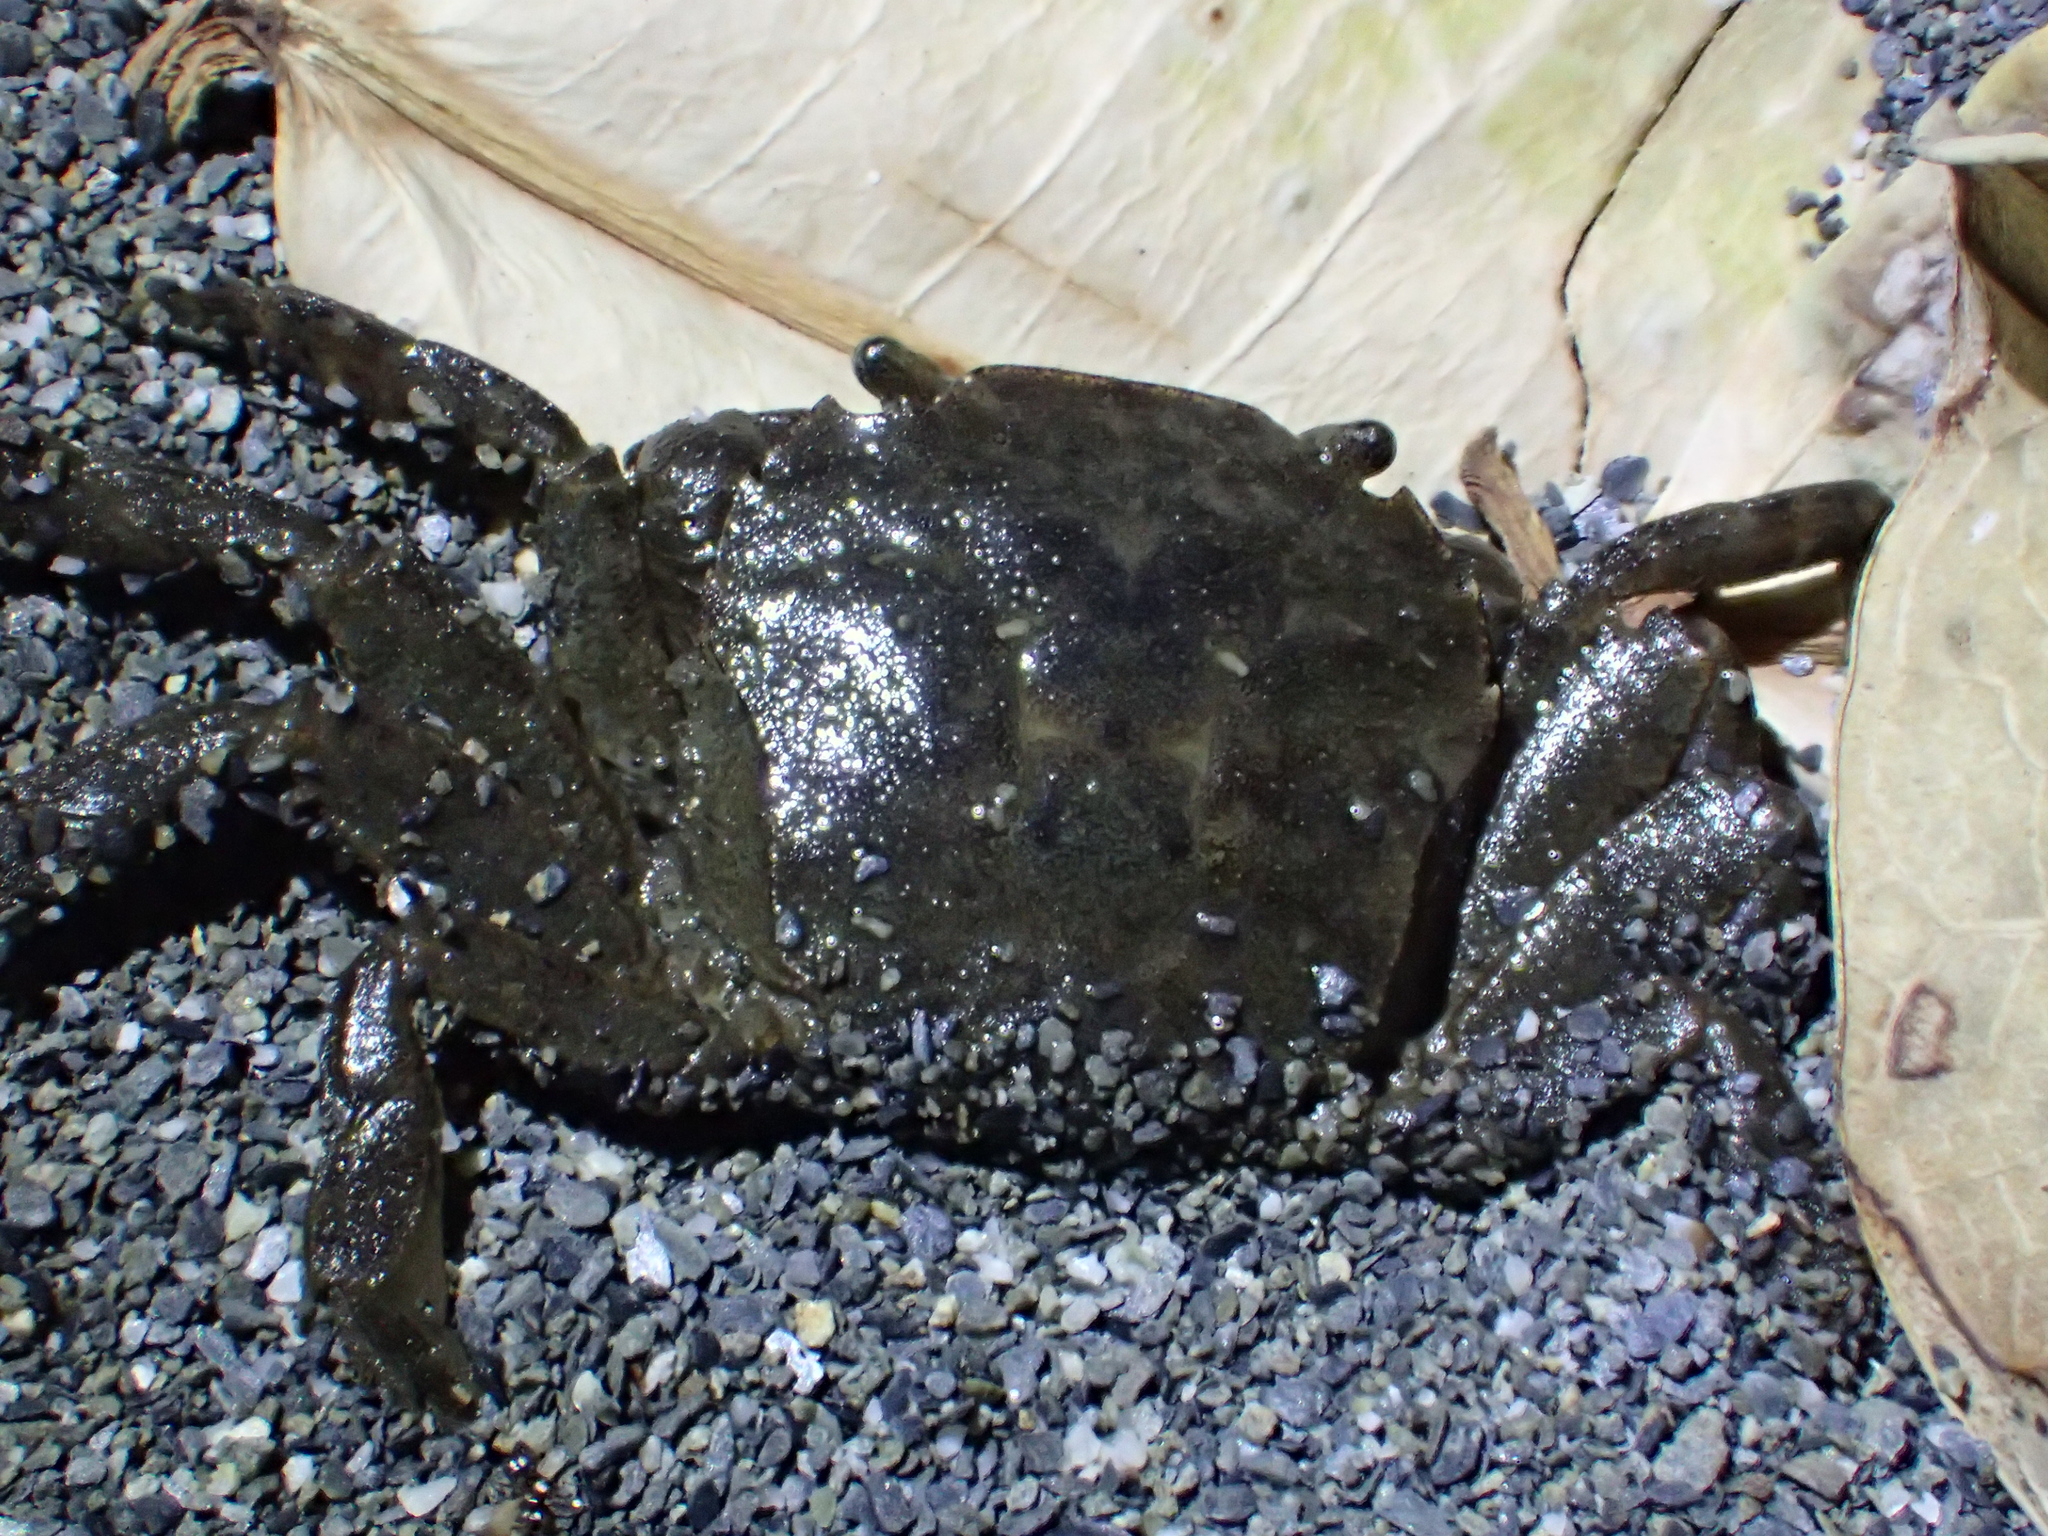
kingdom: Animalia
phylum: Arthropoda
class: Malacostraca
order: Decapoda
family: Varunidae
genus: Varuna
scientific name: Varuna litterata
